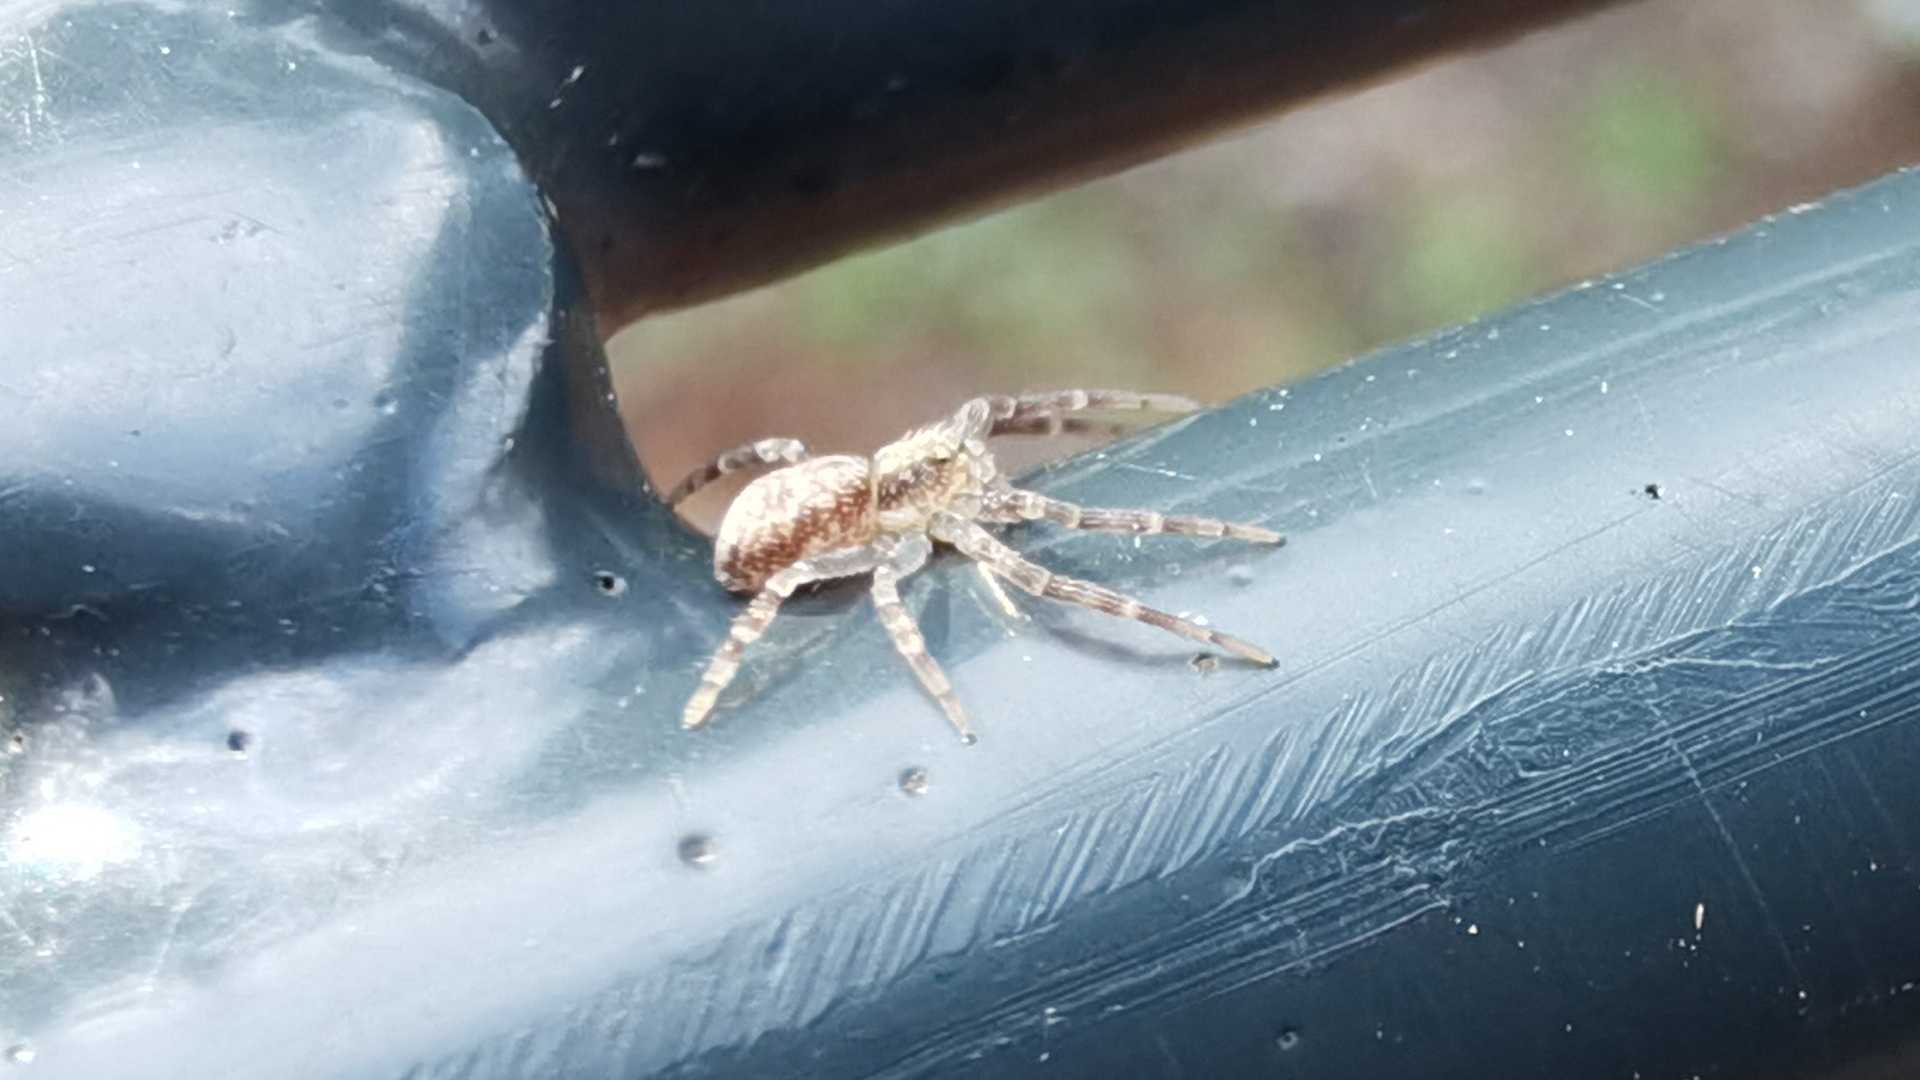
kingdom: Animalia
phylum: Arthropoda
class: Arachnida
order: Araneae
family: Philodromidae
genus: Philodromus
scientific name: Philodromus dispar
